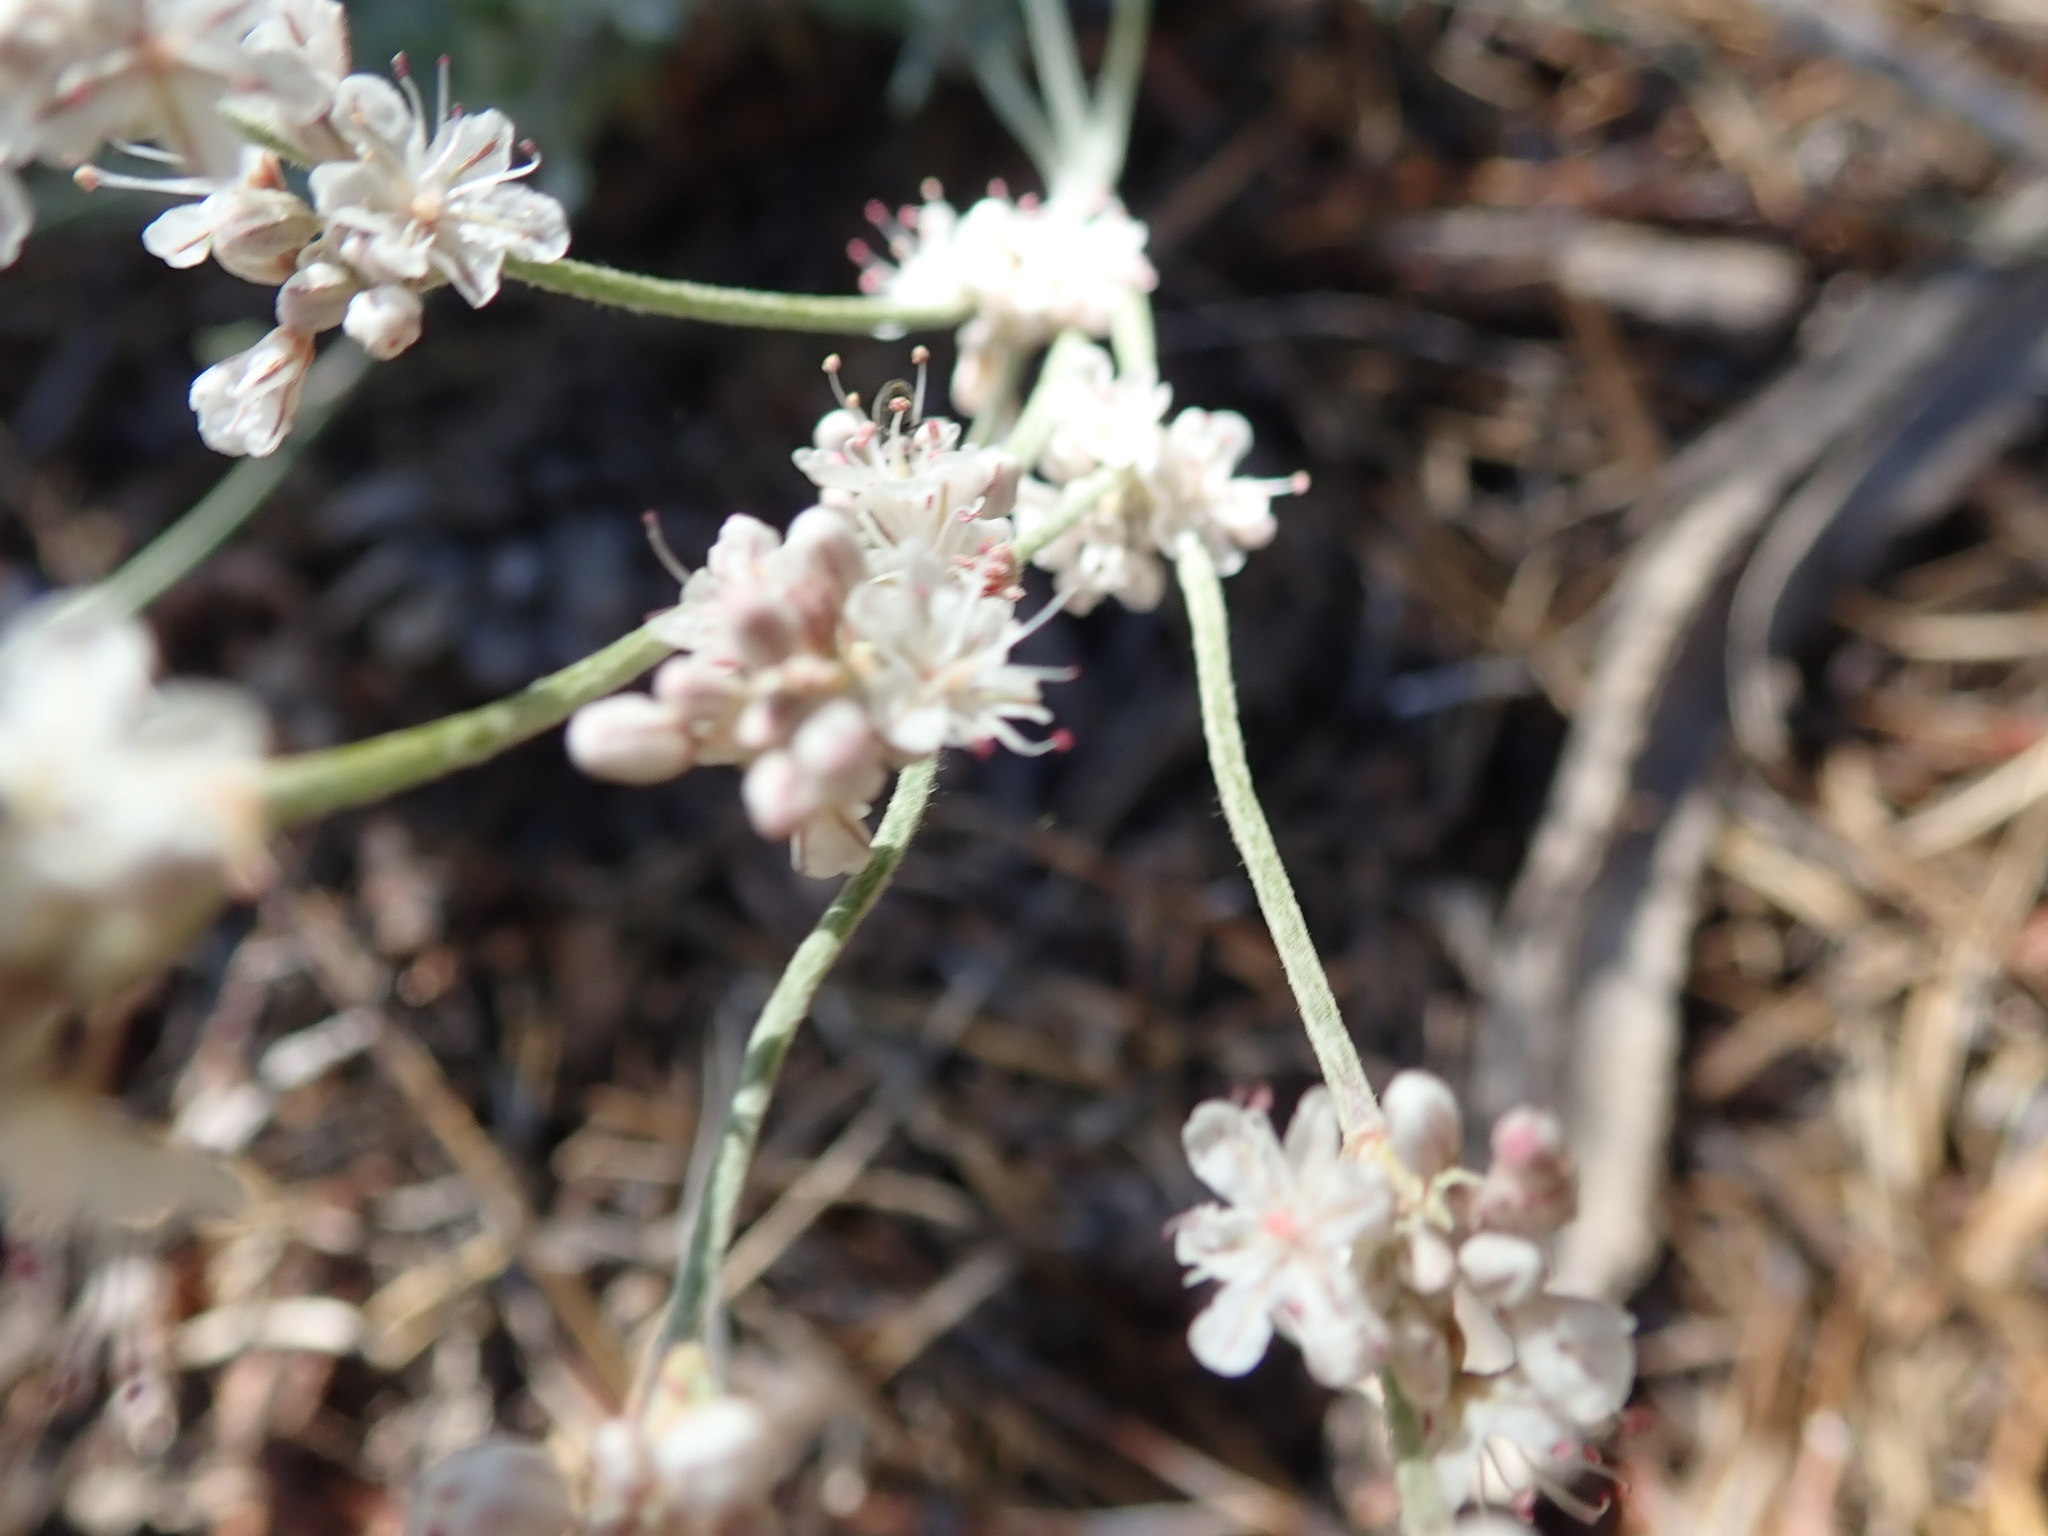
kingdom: Plantae
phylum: Tracheophyta
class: Magnoliopsida
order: Caryophyllales
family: Polygonaceae
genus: Eriogonum
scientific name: Eriogonum wrightii
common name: Bastard-sage
